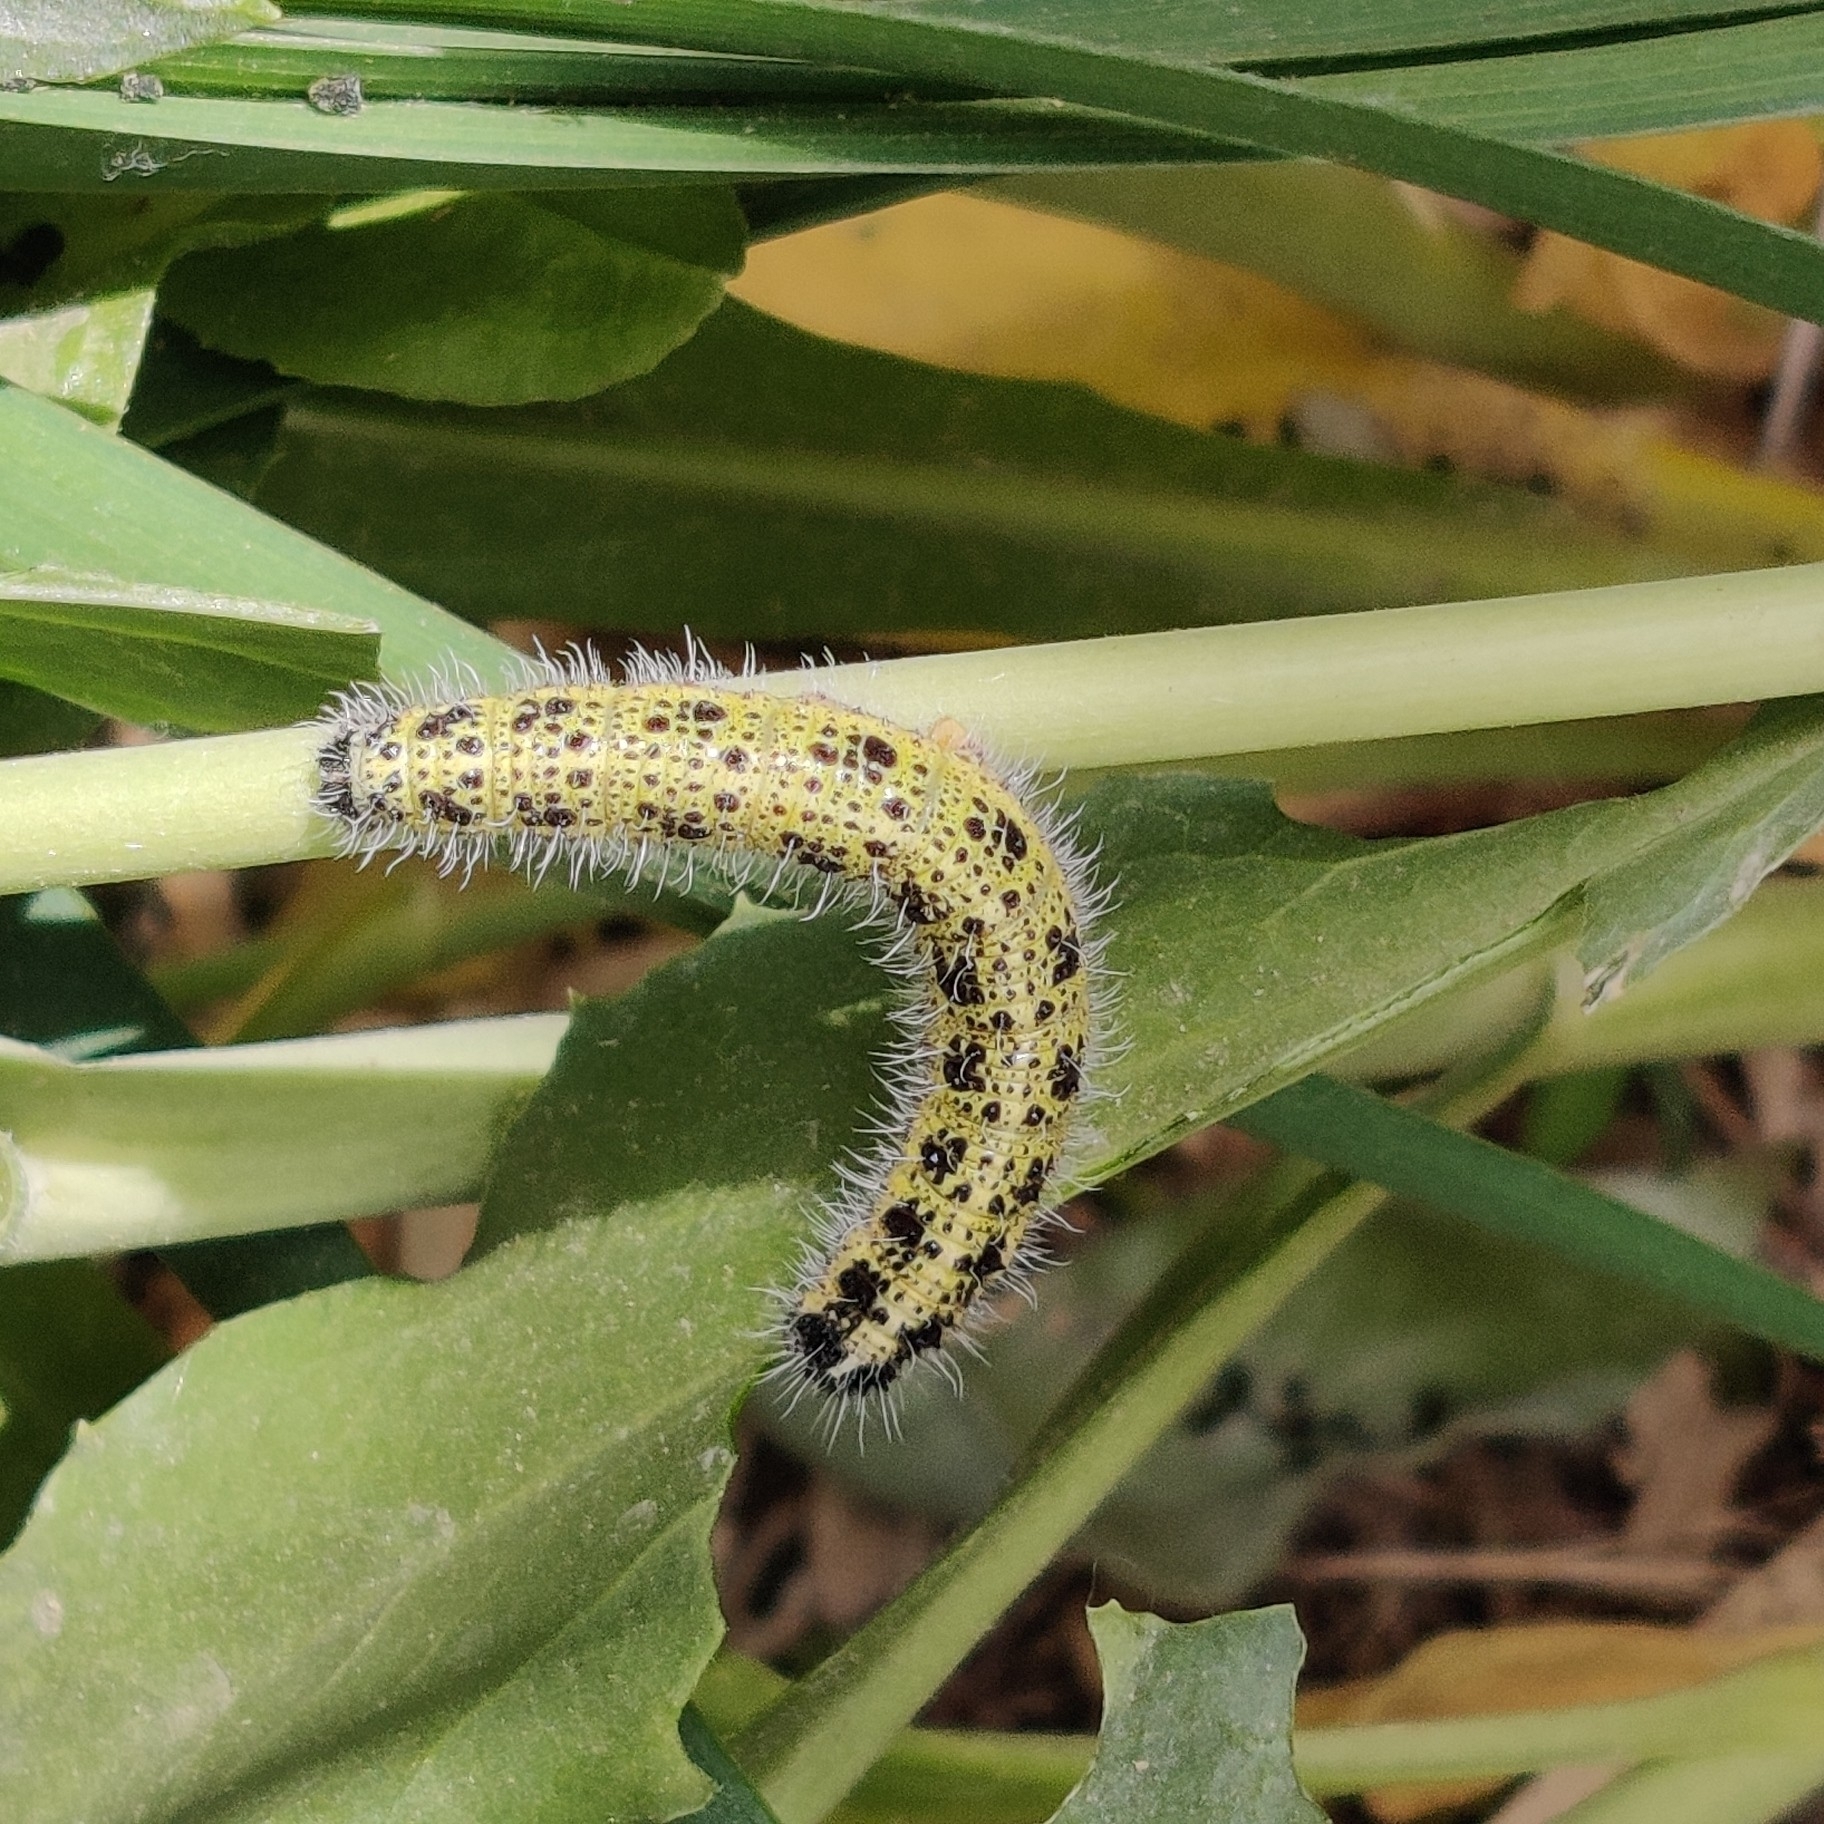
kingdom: Animalia
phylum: Arthropoda
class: Insecta
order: Lepidoptera
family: Pieridae
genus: Pieris
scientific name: Pieris brassicae
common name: Large white
